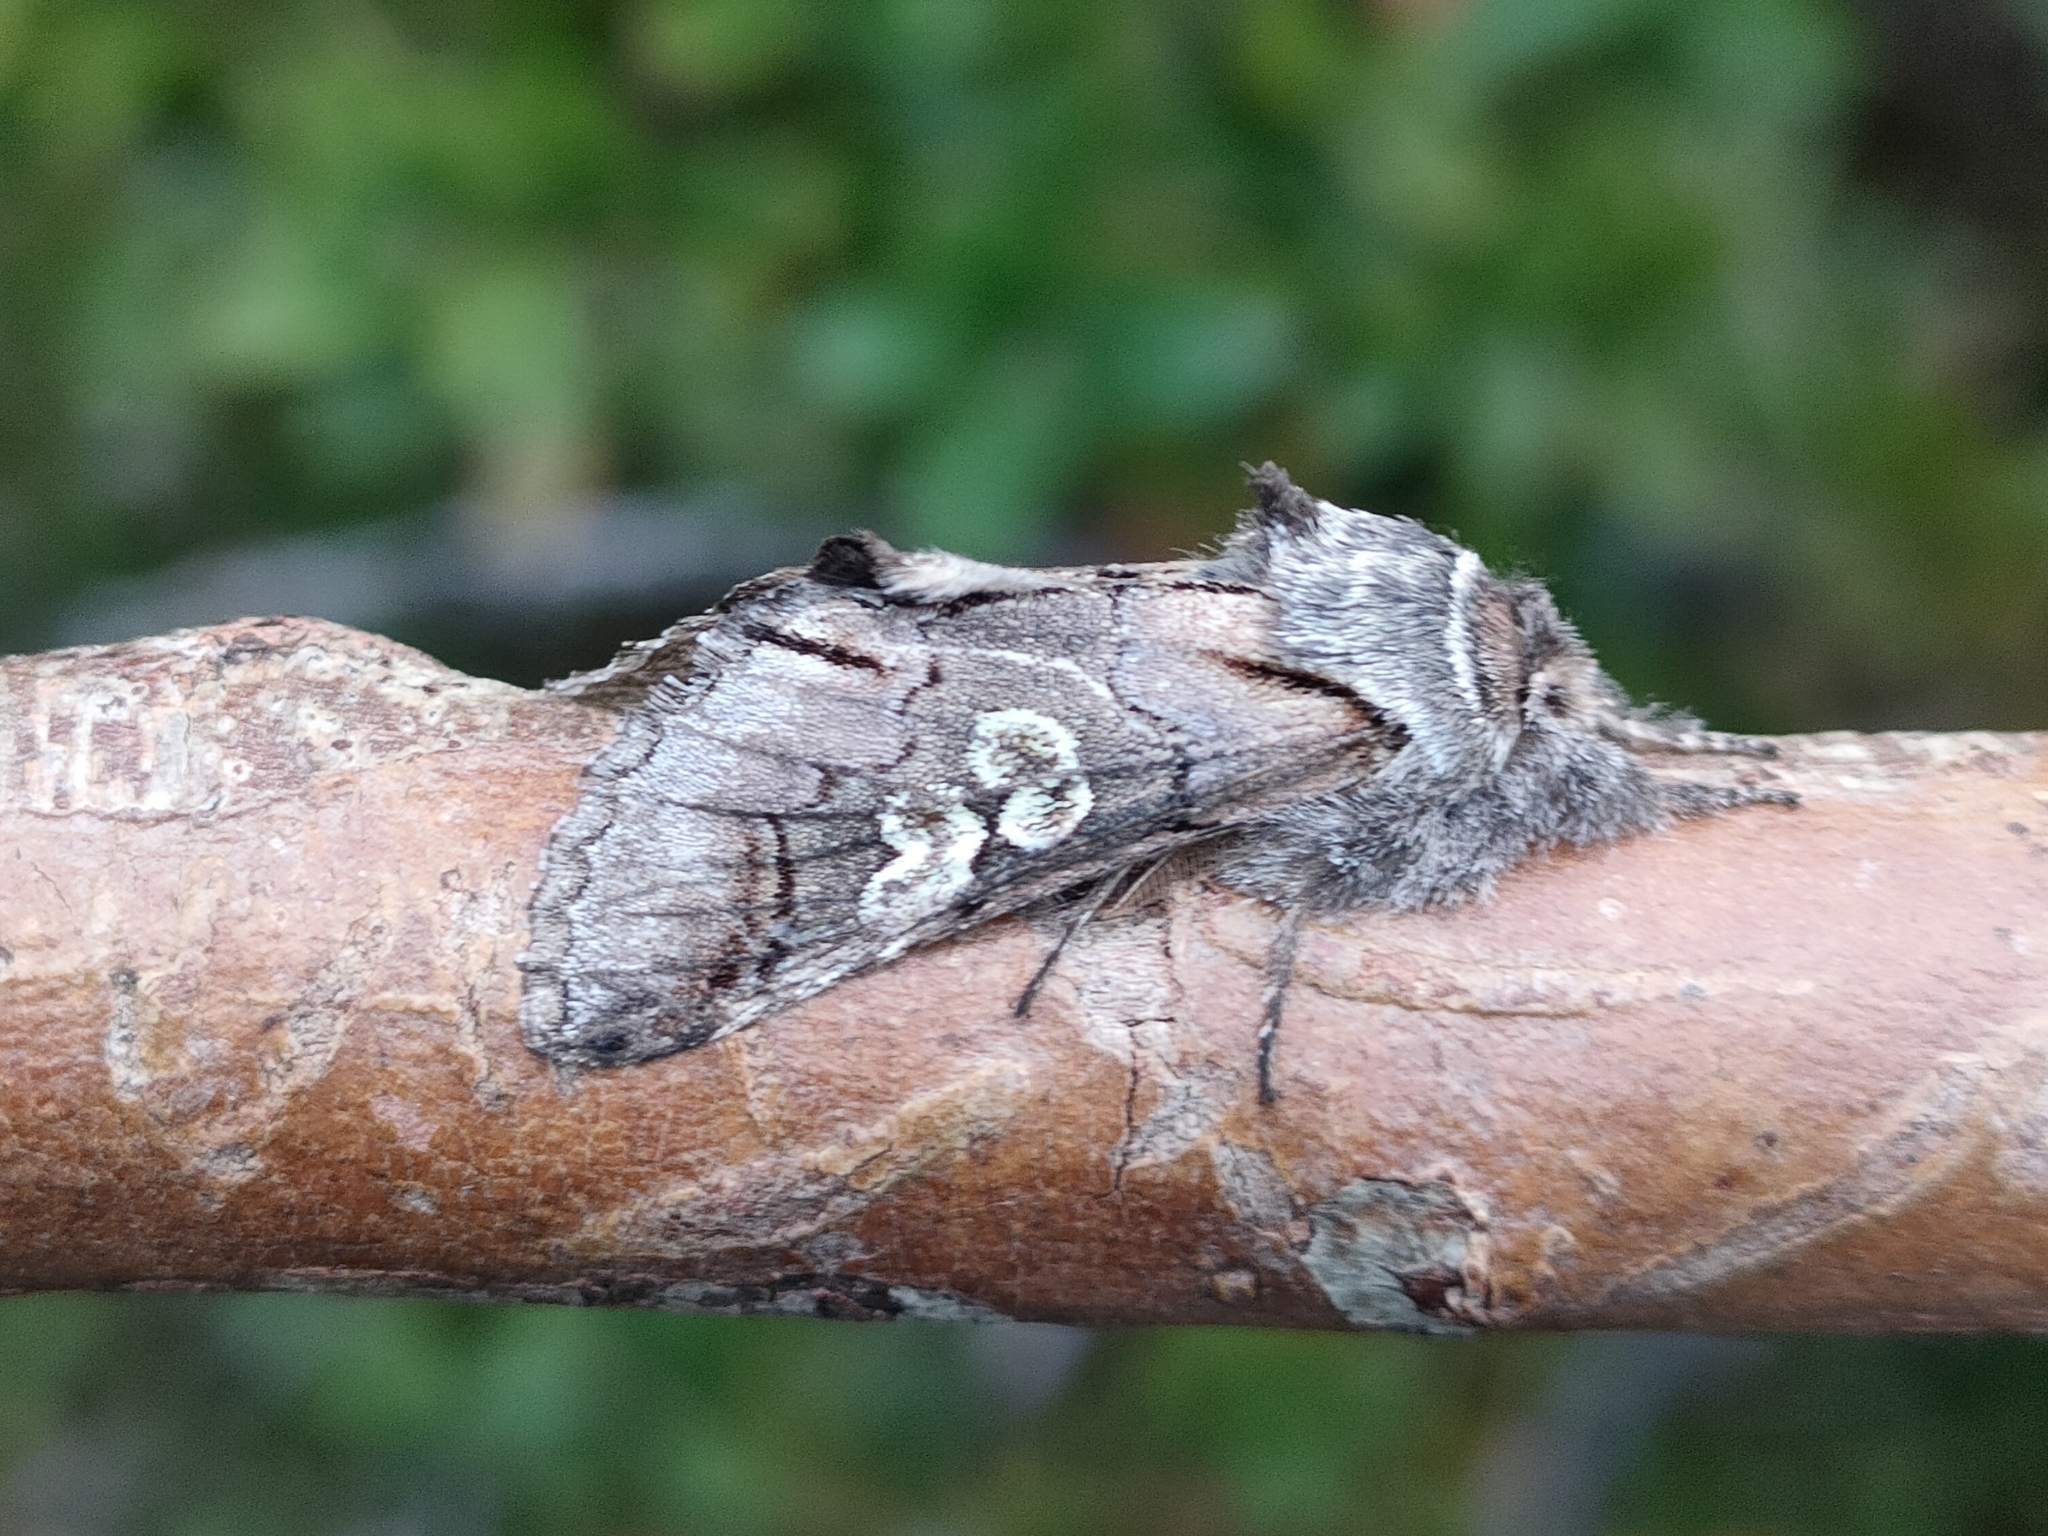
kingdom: Animalia
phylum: Arthropoda
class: Insecta
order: Lepidoptera
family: Noctuidae
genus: Diloba
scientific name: Diloba caeruleocephala
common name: Figure of eight
